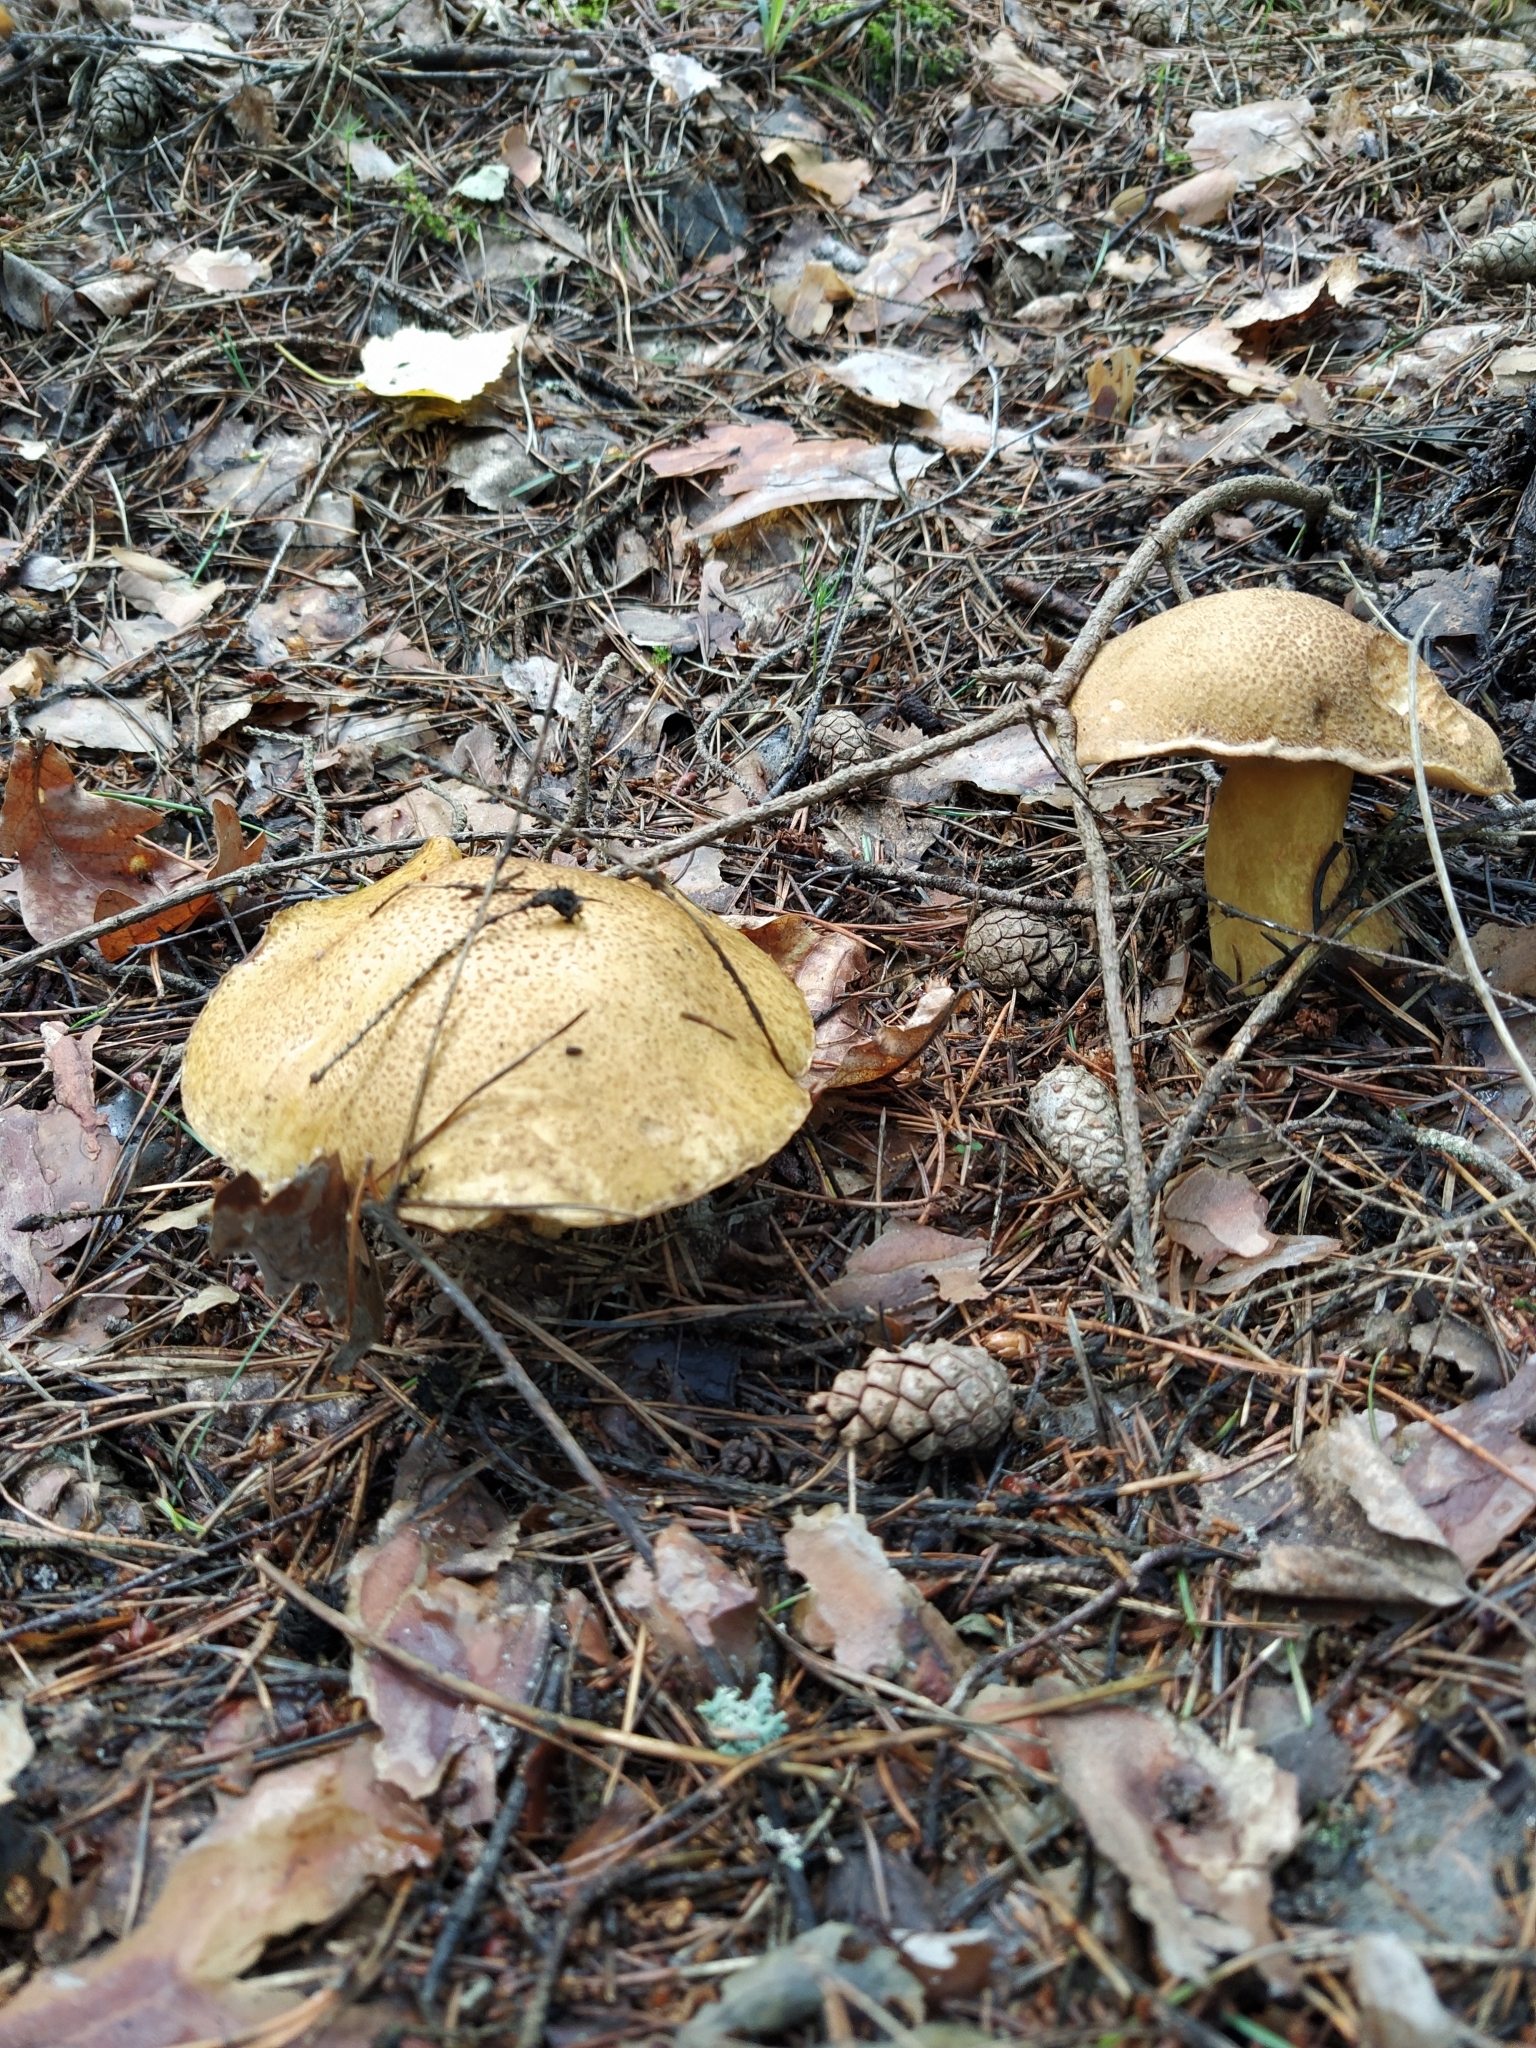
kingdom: Fungi
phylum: Basidiomycota
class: Agaricomycetes
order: Boletales
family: Suillaceae
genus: Suillus
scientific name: Suillus variegatus
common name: Velvet bolete
